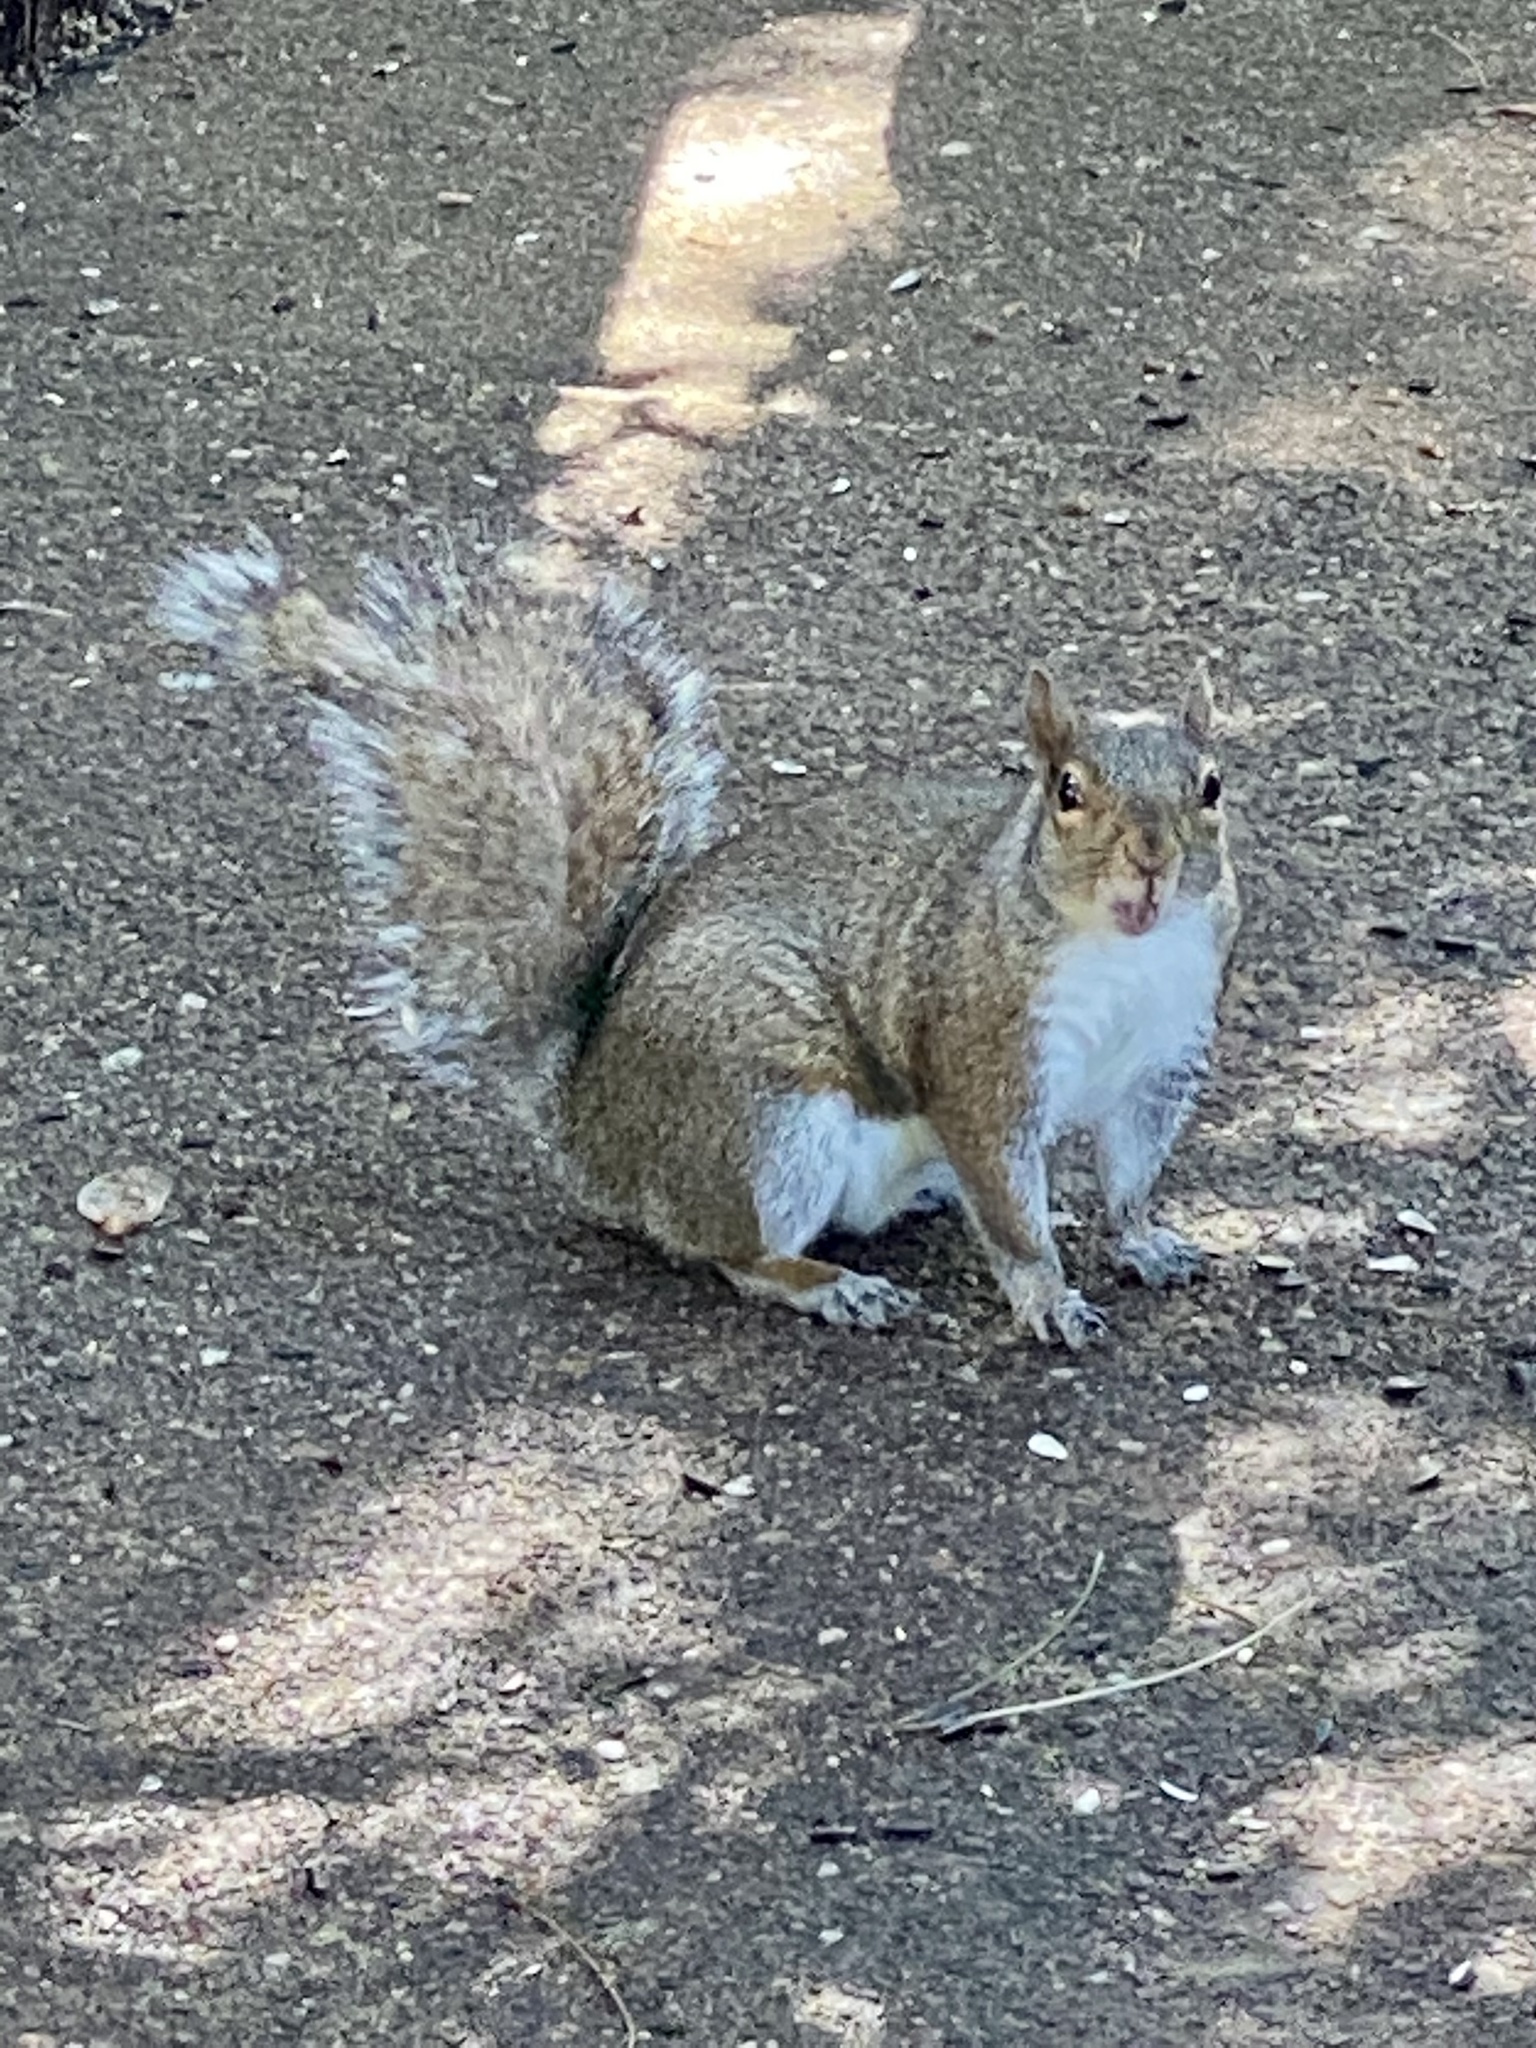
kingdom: Animalia
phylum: Chordata
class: Mammalia
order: Rodentia
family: Sciuridae
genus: Sciurus
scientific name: Sciurus carolinensis
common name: Eastern gray squirrel
